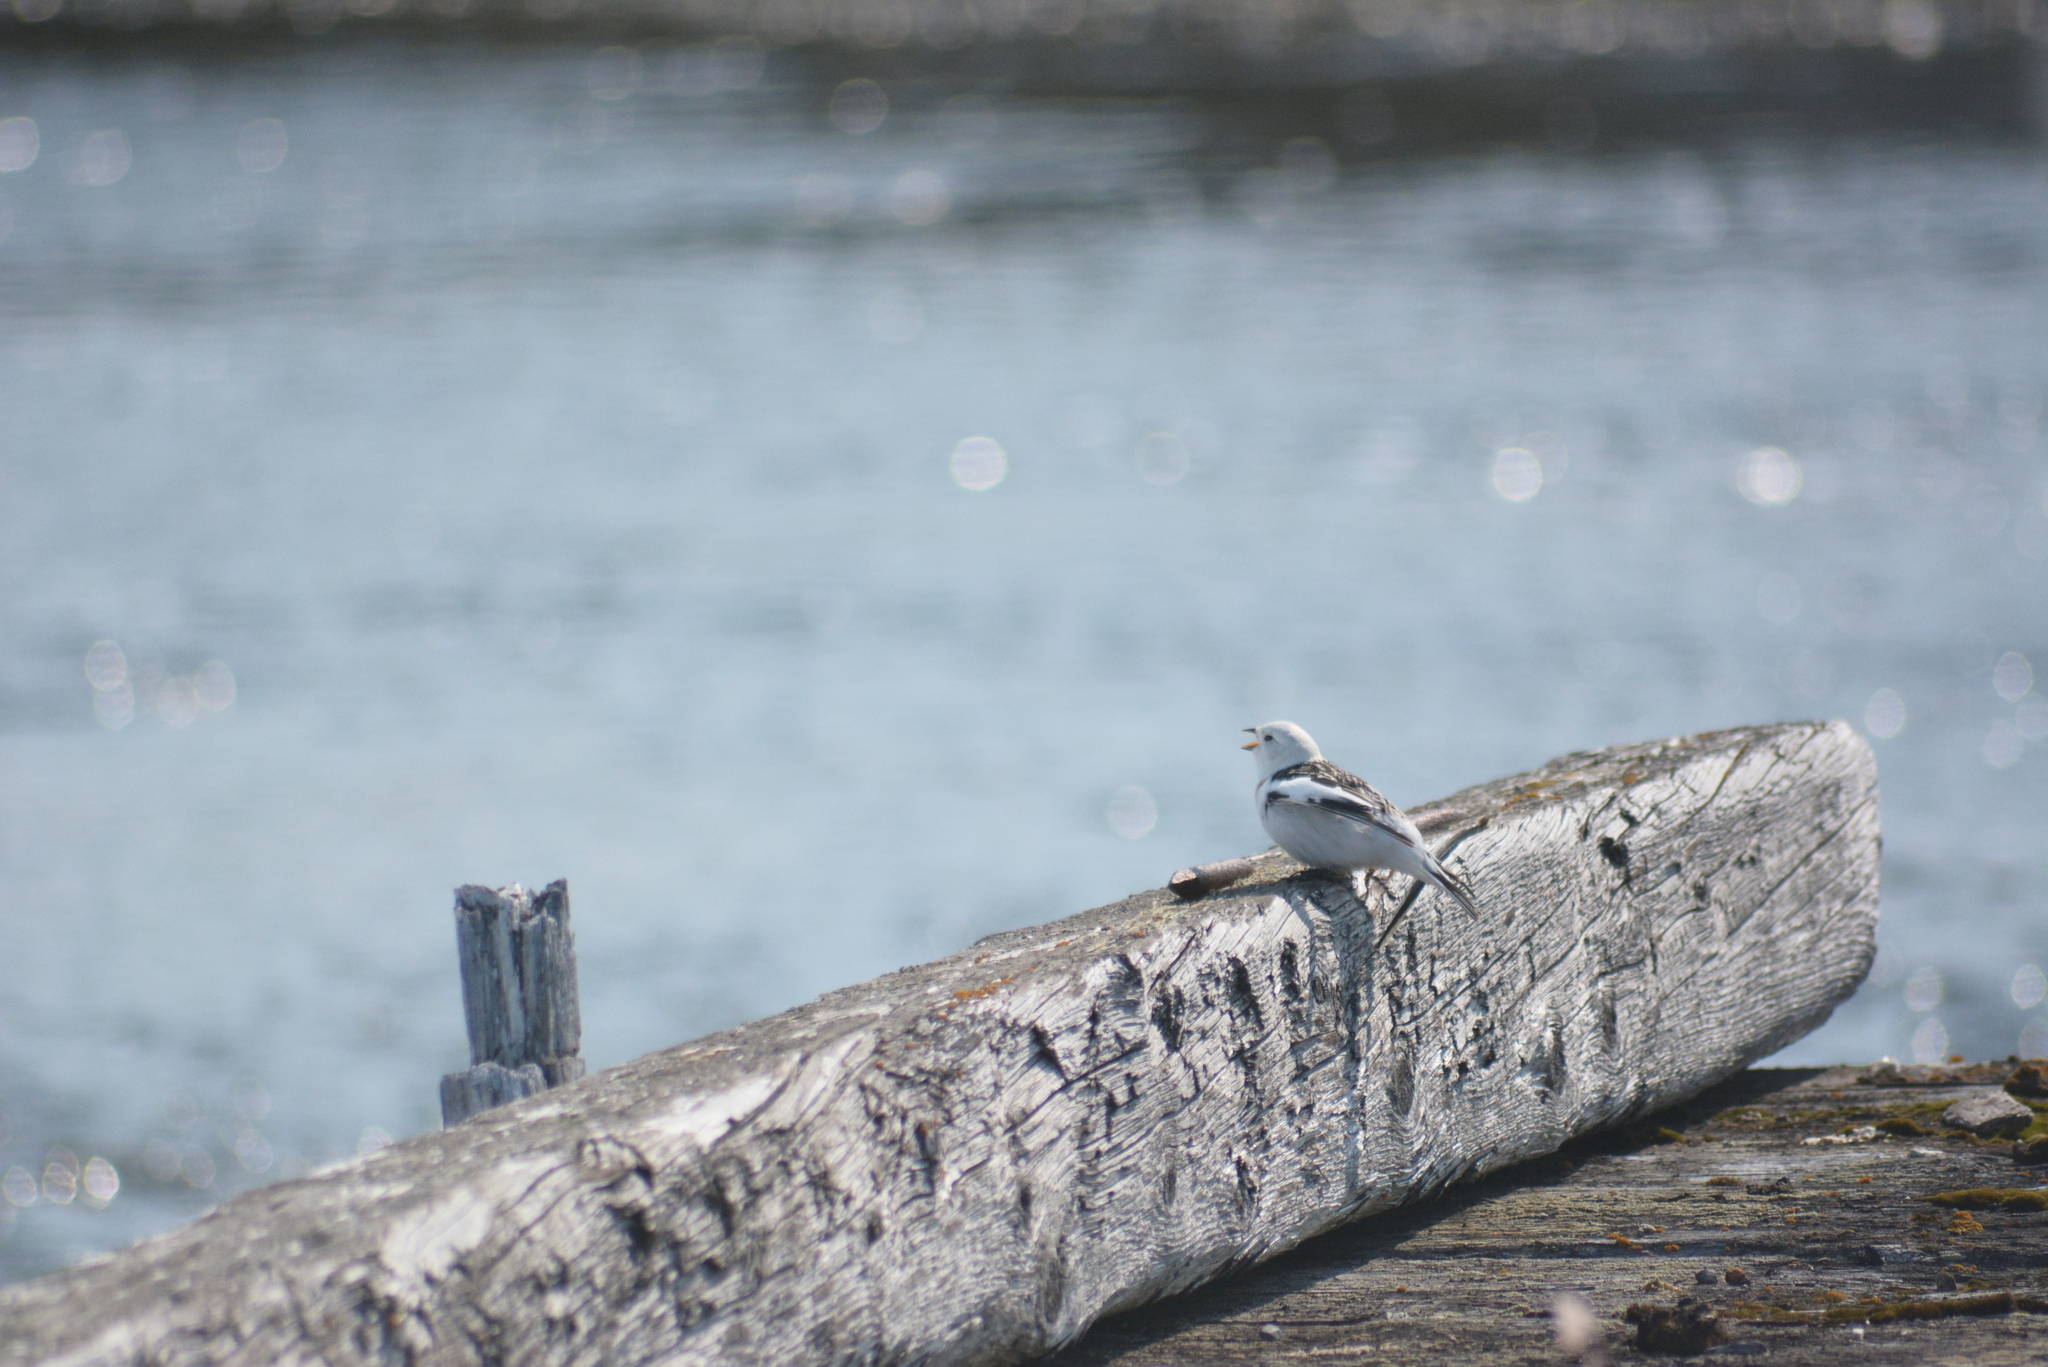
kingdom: Animalia
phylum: Chordata
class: Aves
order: Passeriformes
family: Calcariidae
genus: Plectrophenax
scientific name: Plectrophenax nivalis
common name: Snow bunting
